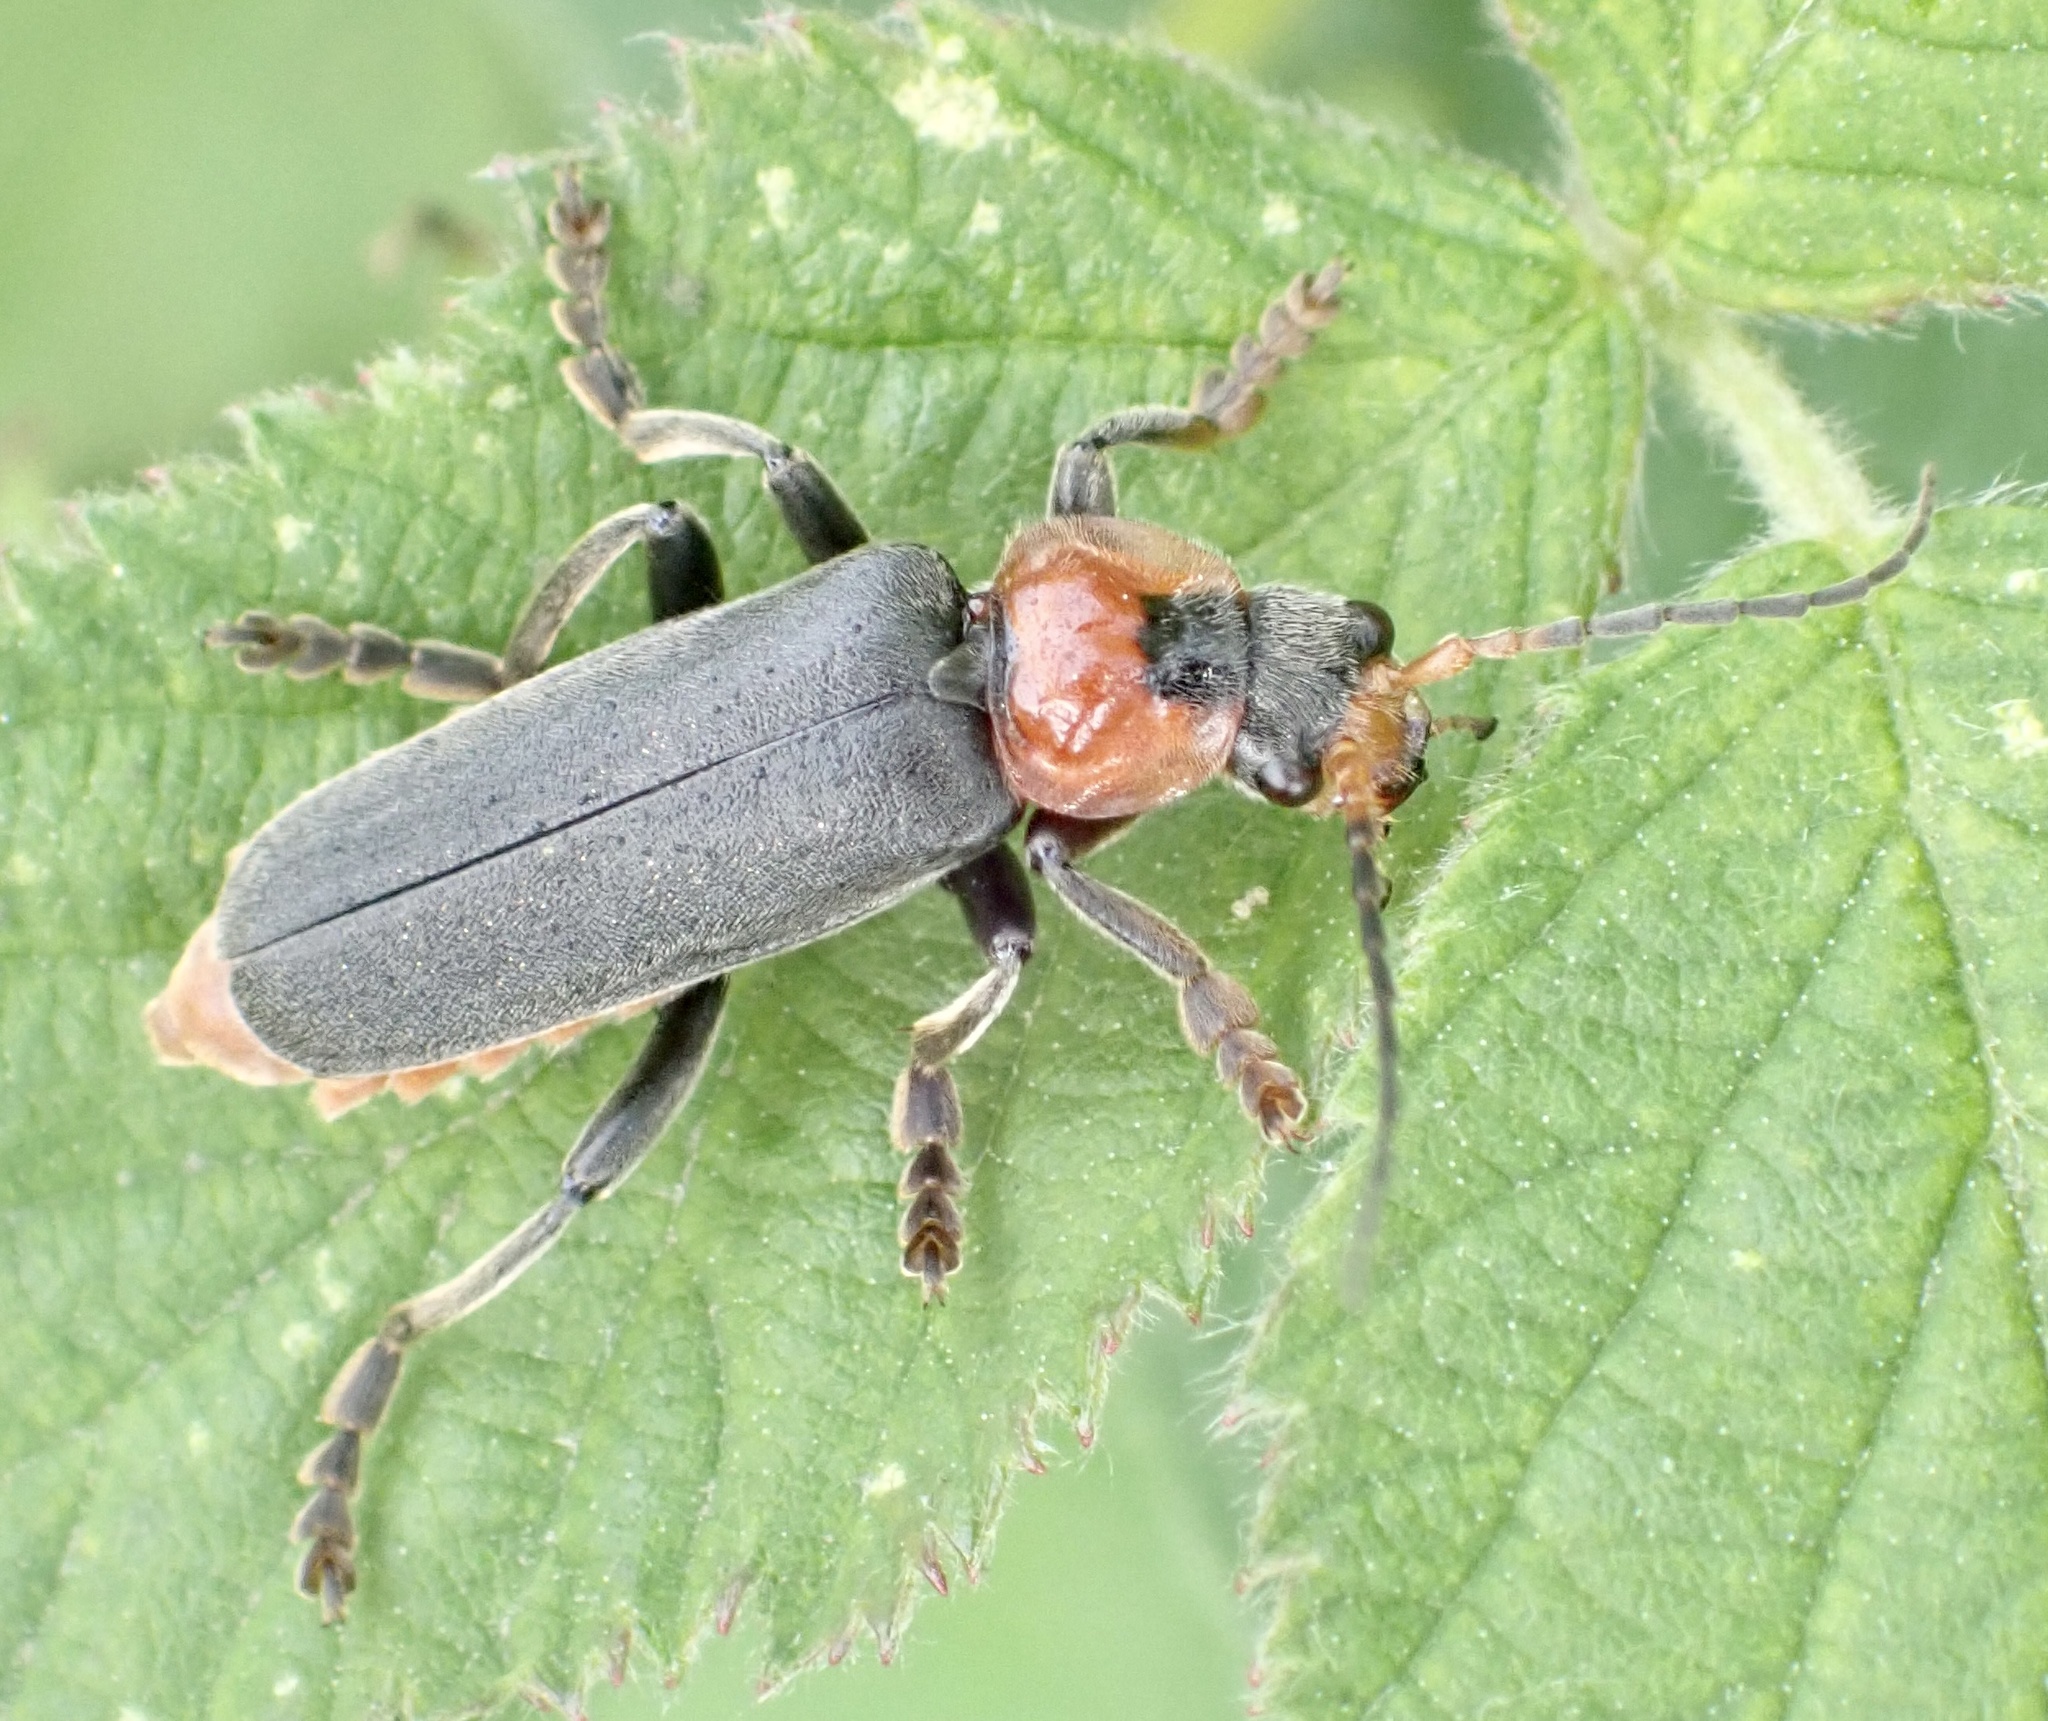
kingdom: Animalia
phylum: Arthropoda
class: Insecta
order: Coleoptera
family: Cantharidae
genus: Cantharis
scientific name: Cantharis fusca
